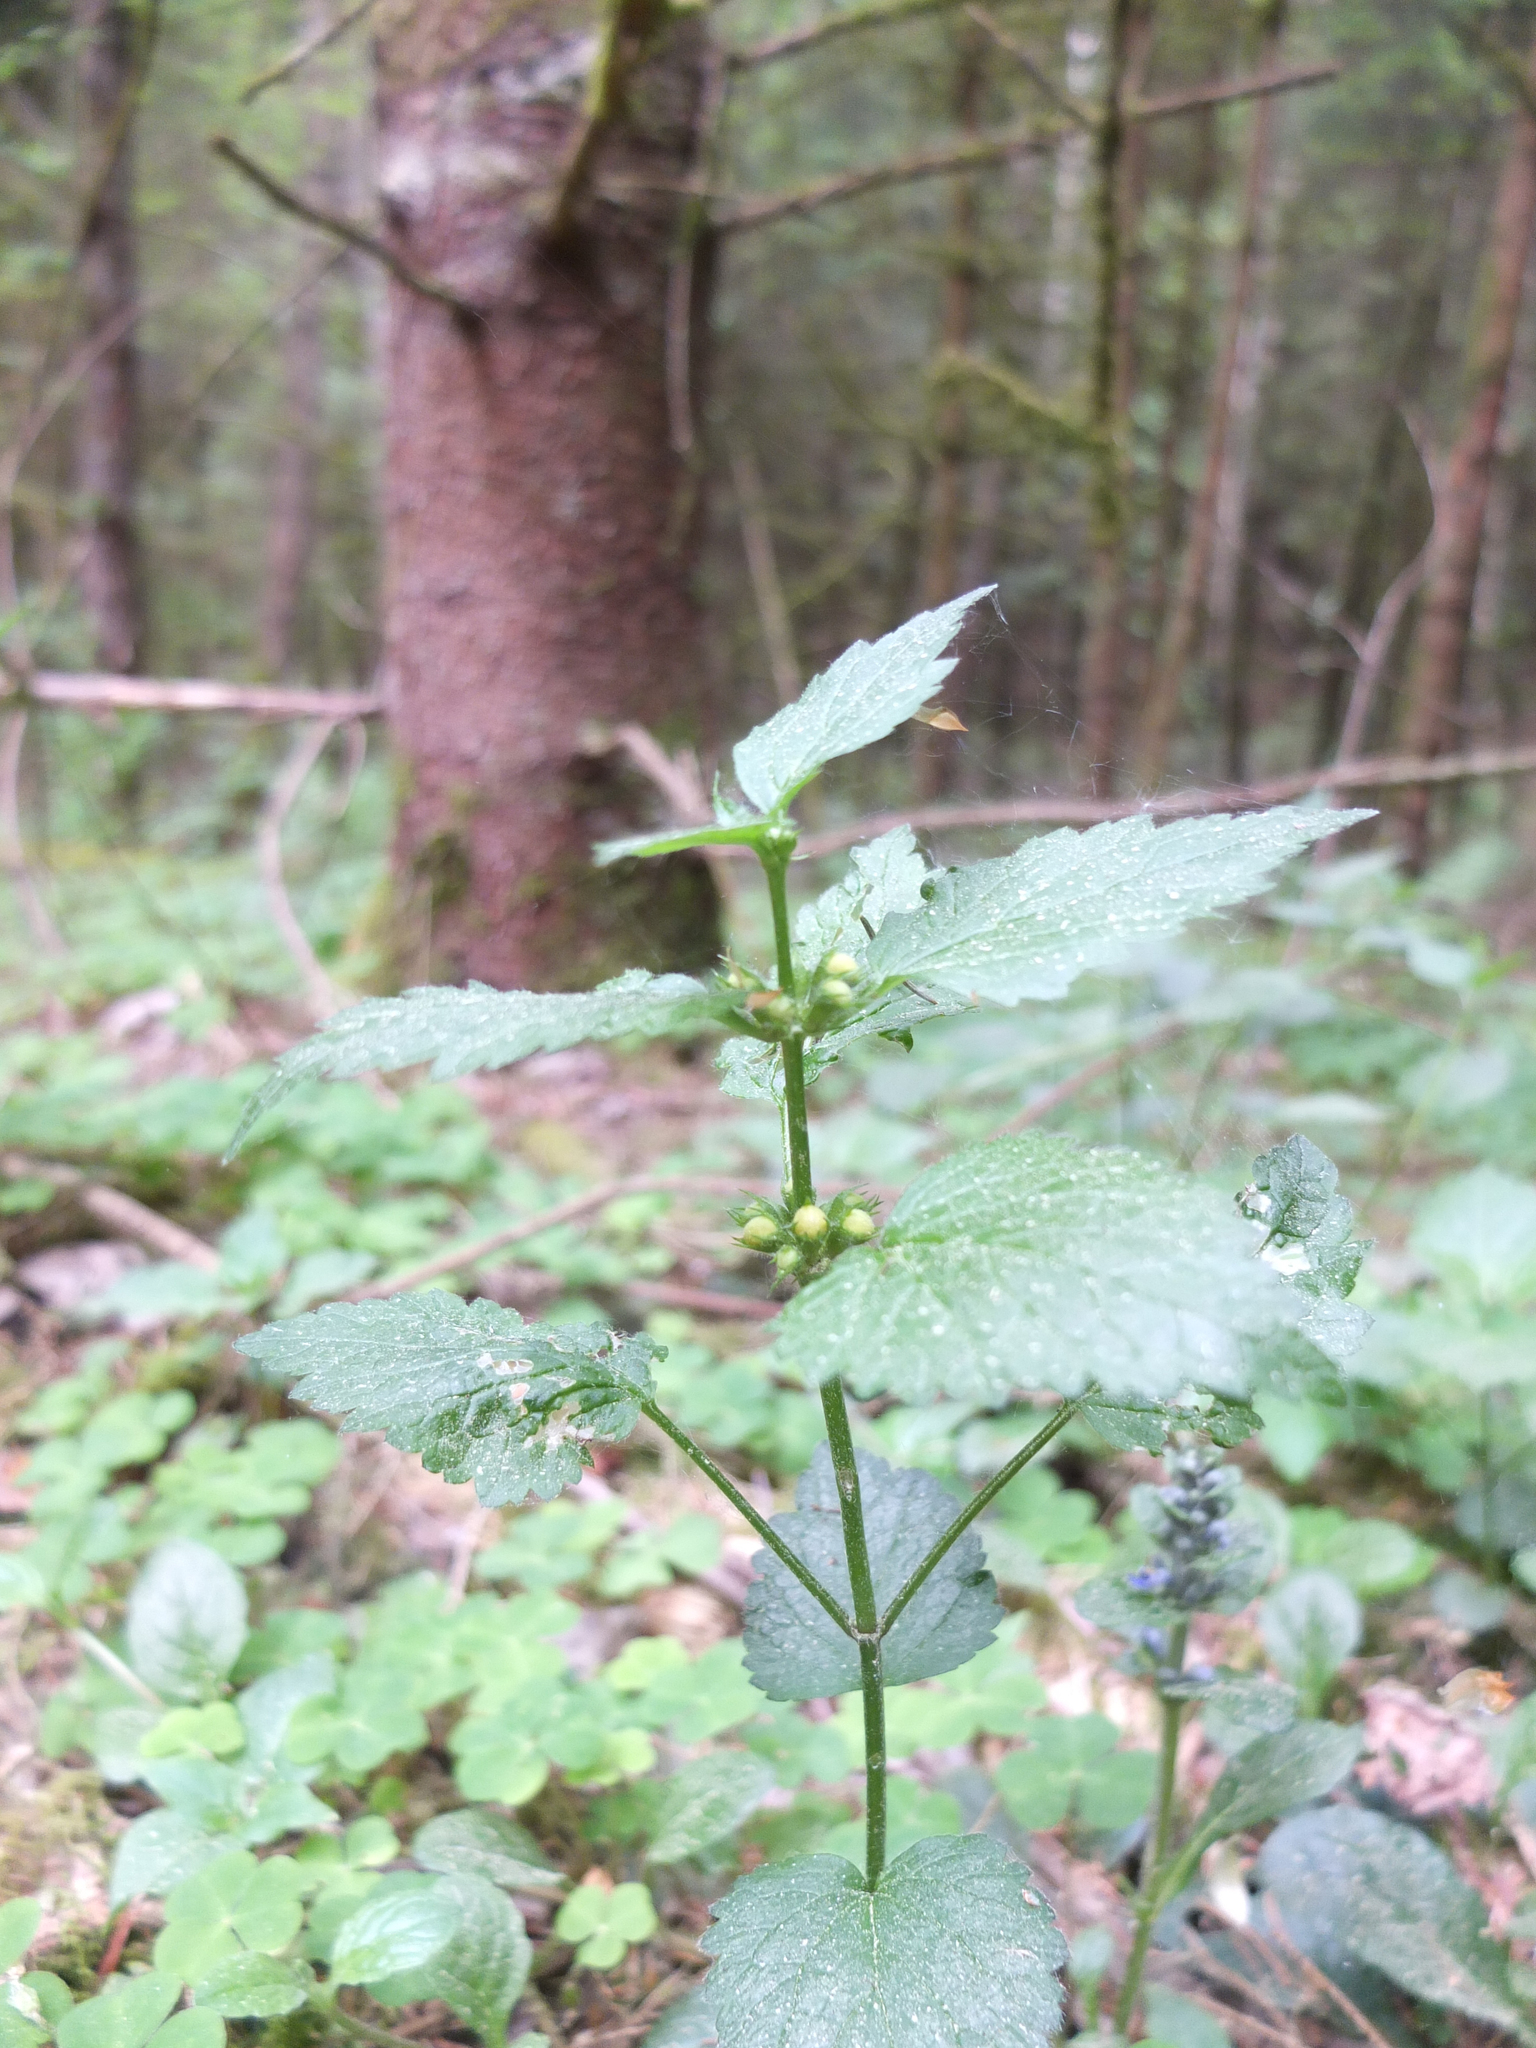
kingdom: Plantae
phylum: Tracheophyta
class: Magnoliopsida
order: Lamiales
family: Lamiaceae
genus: Lamium
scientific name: Lamium galeobdolon
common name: Yellow archangel
